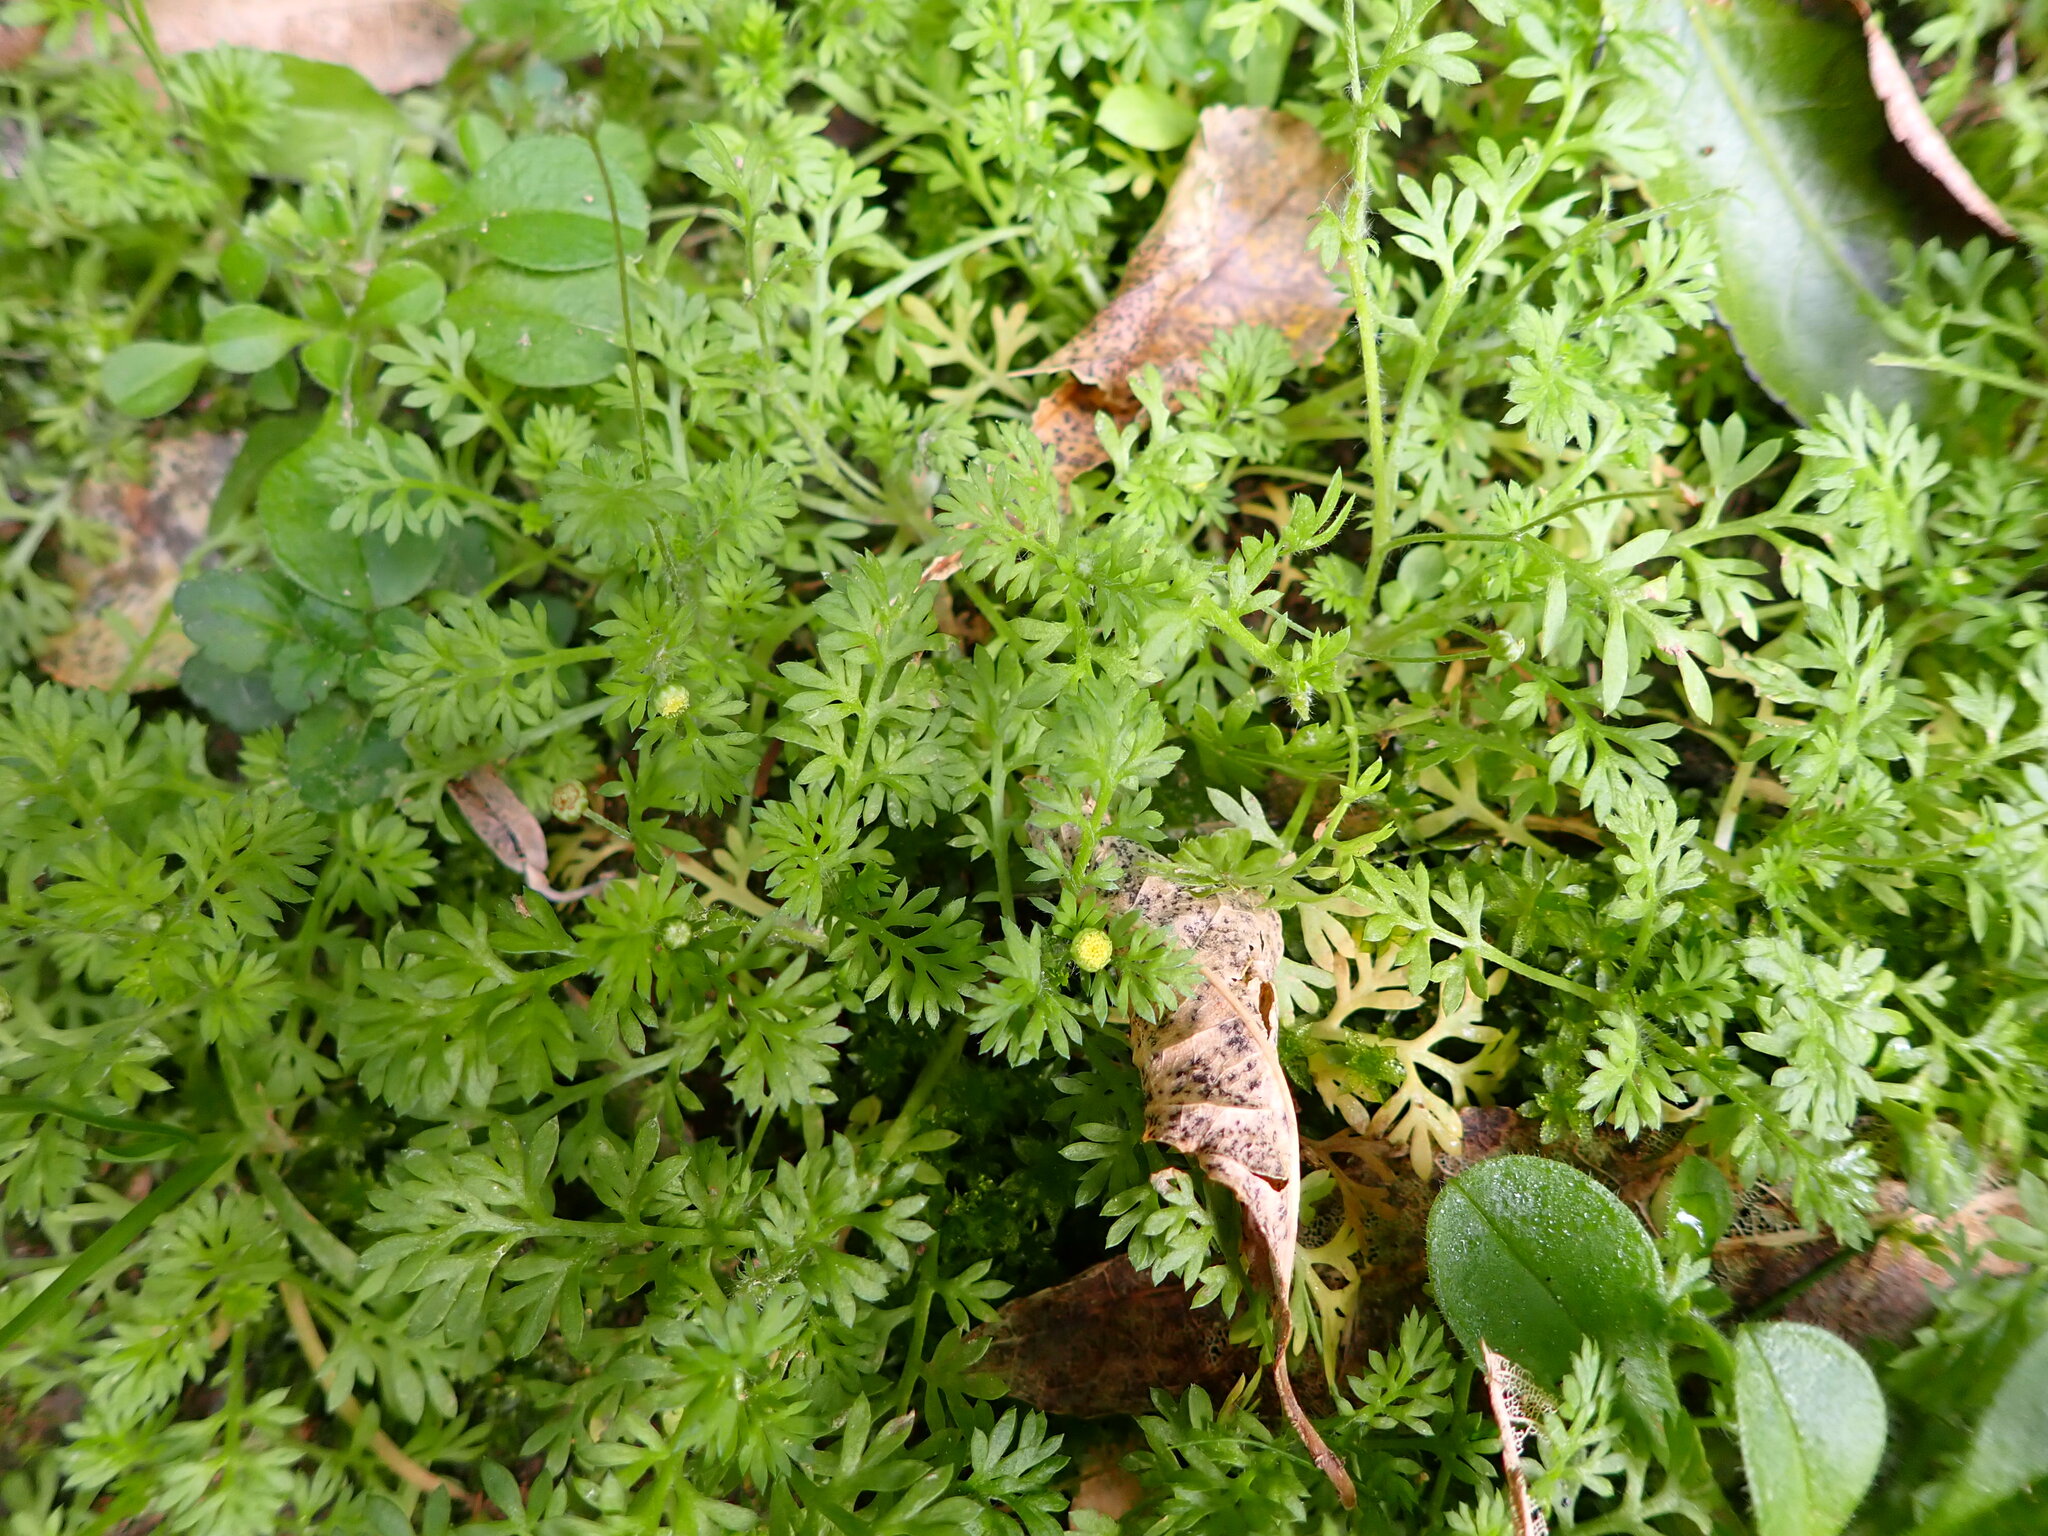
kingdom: Plantae
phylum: Tracheophyta
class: Magnoliopsida
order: Asterales
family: Asteraceae
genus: Cotula
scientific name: Cotula australis
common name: Australian waterbuttons
